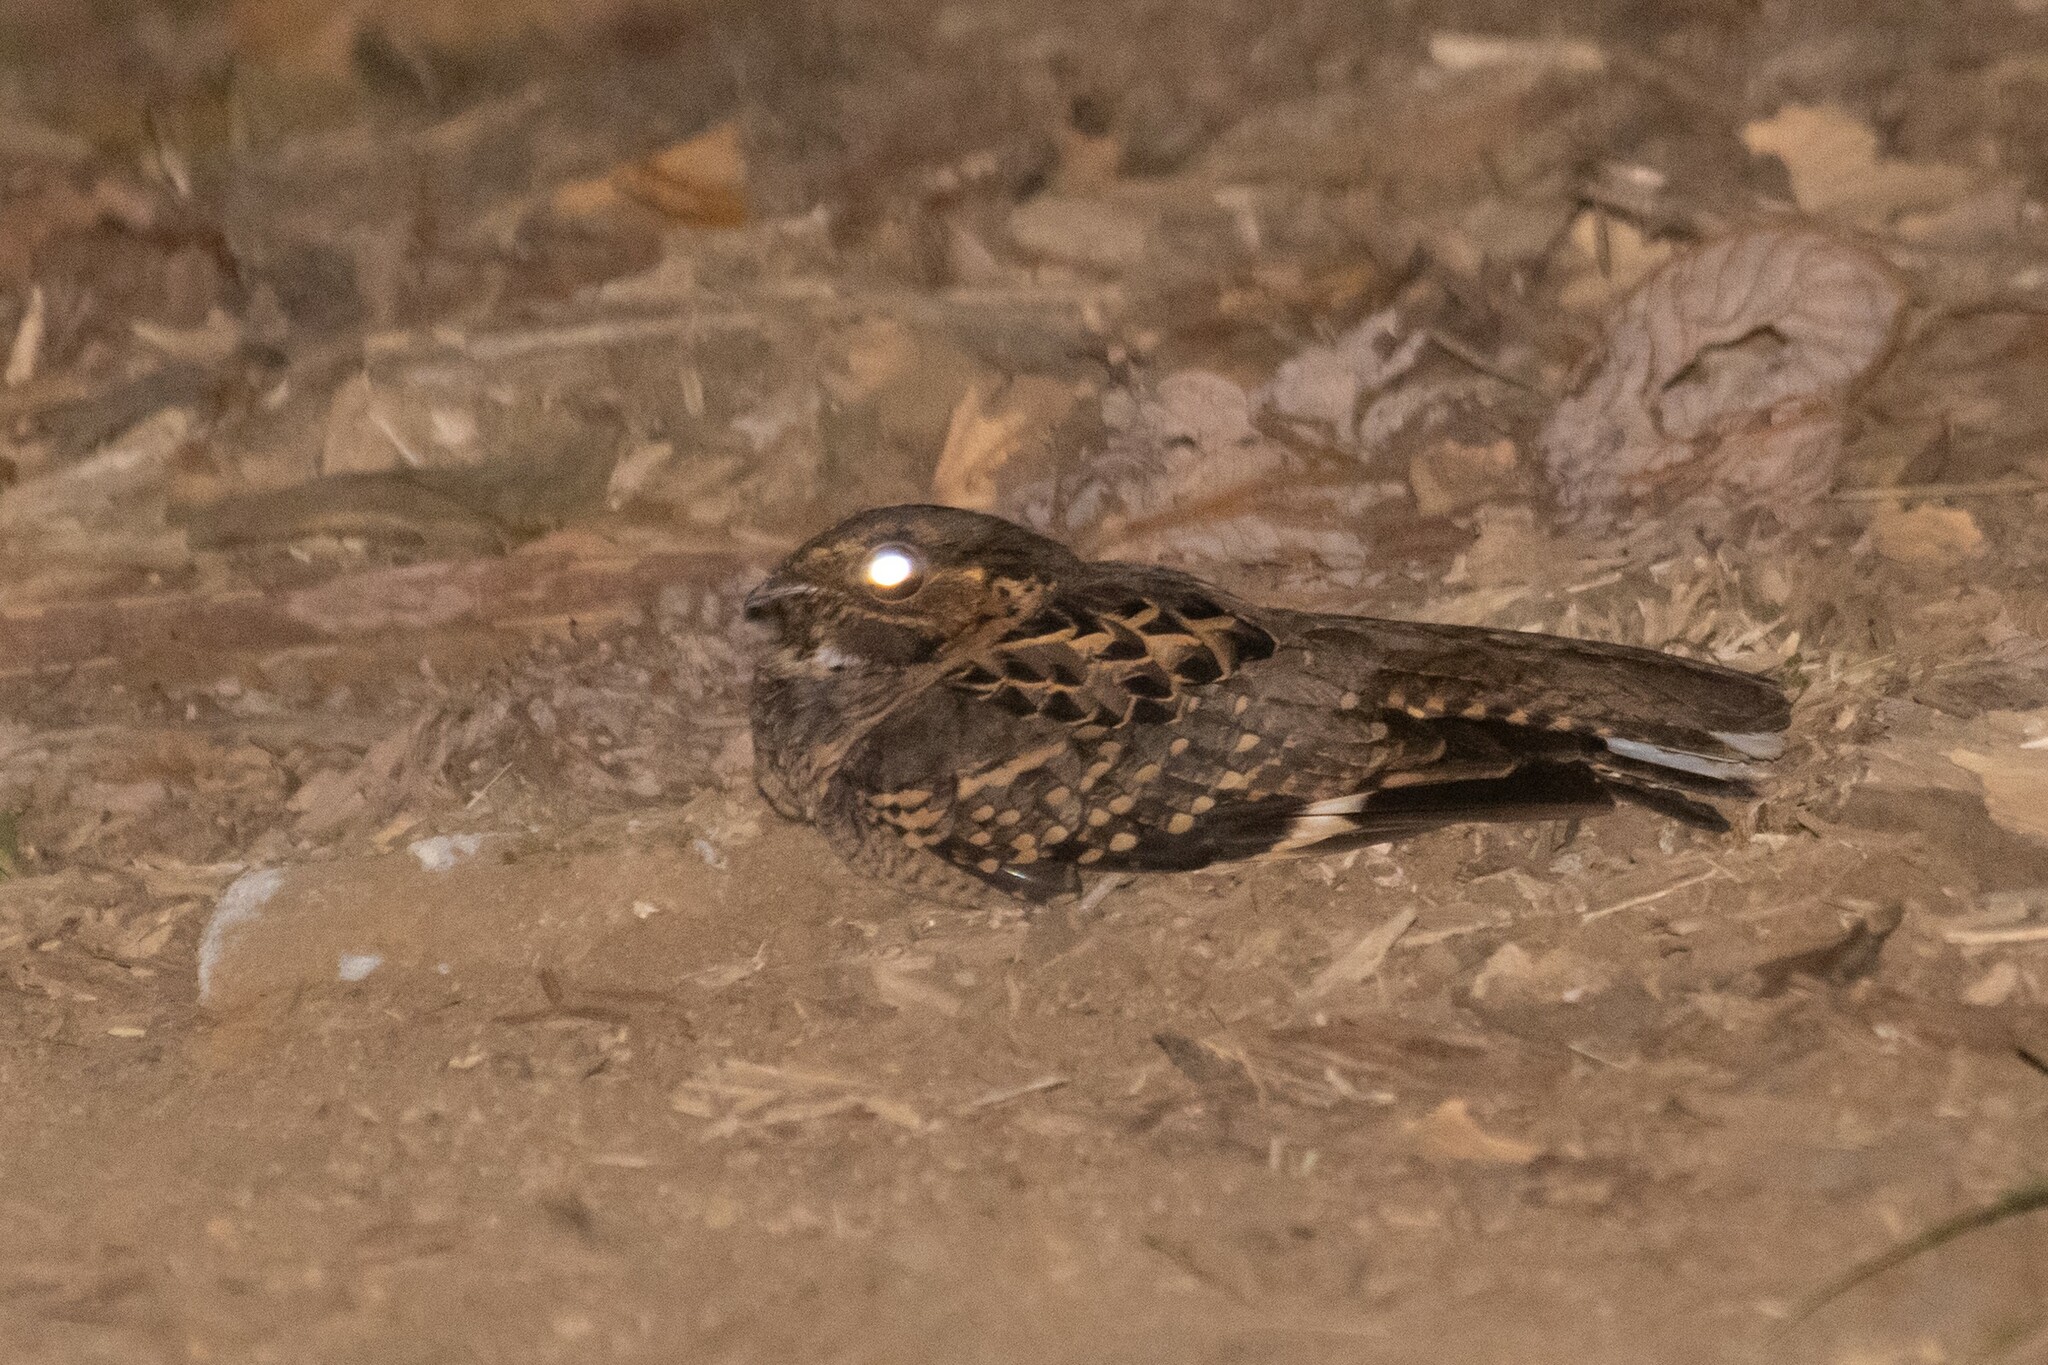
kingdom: Animalia
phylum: Chordata
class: Aves
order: Caprimulgiformes
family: Caprimulgidae
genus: Nyctidromus
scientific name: Nyctidromus albicollis
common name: Pauraque
